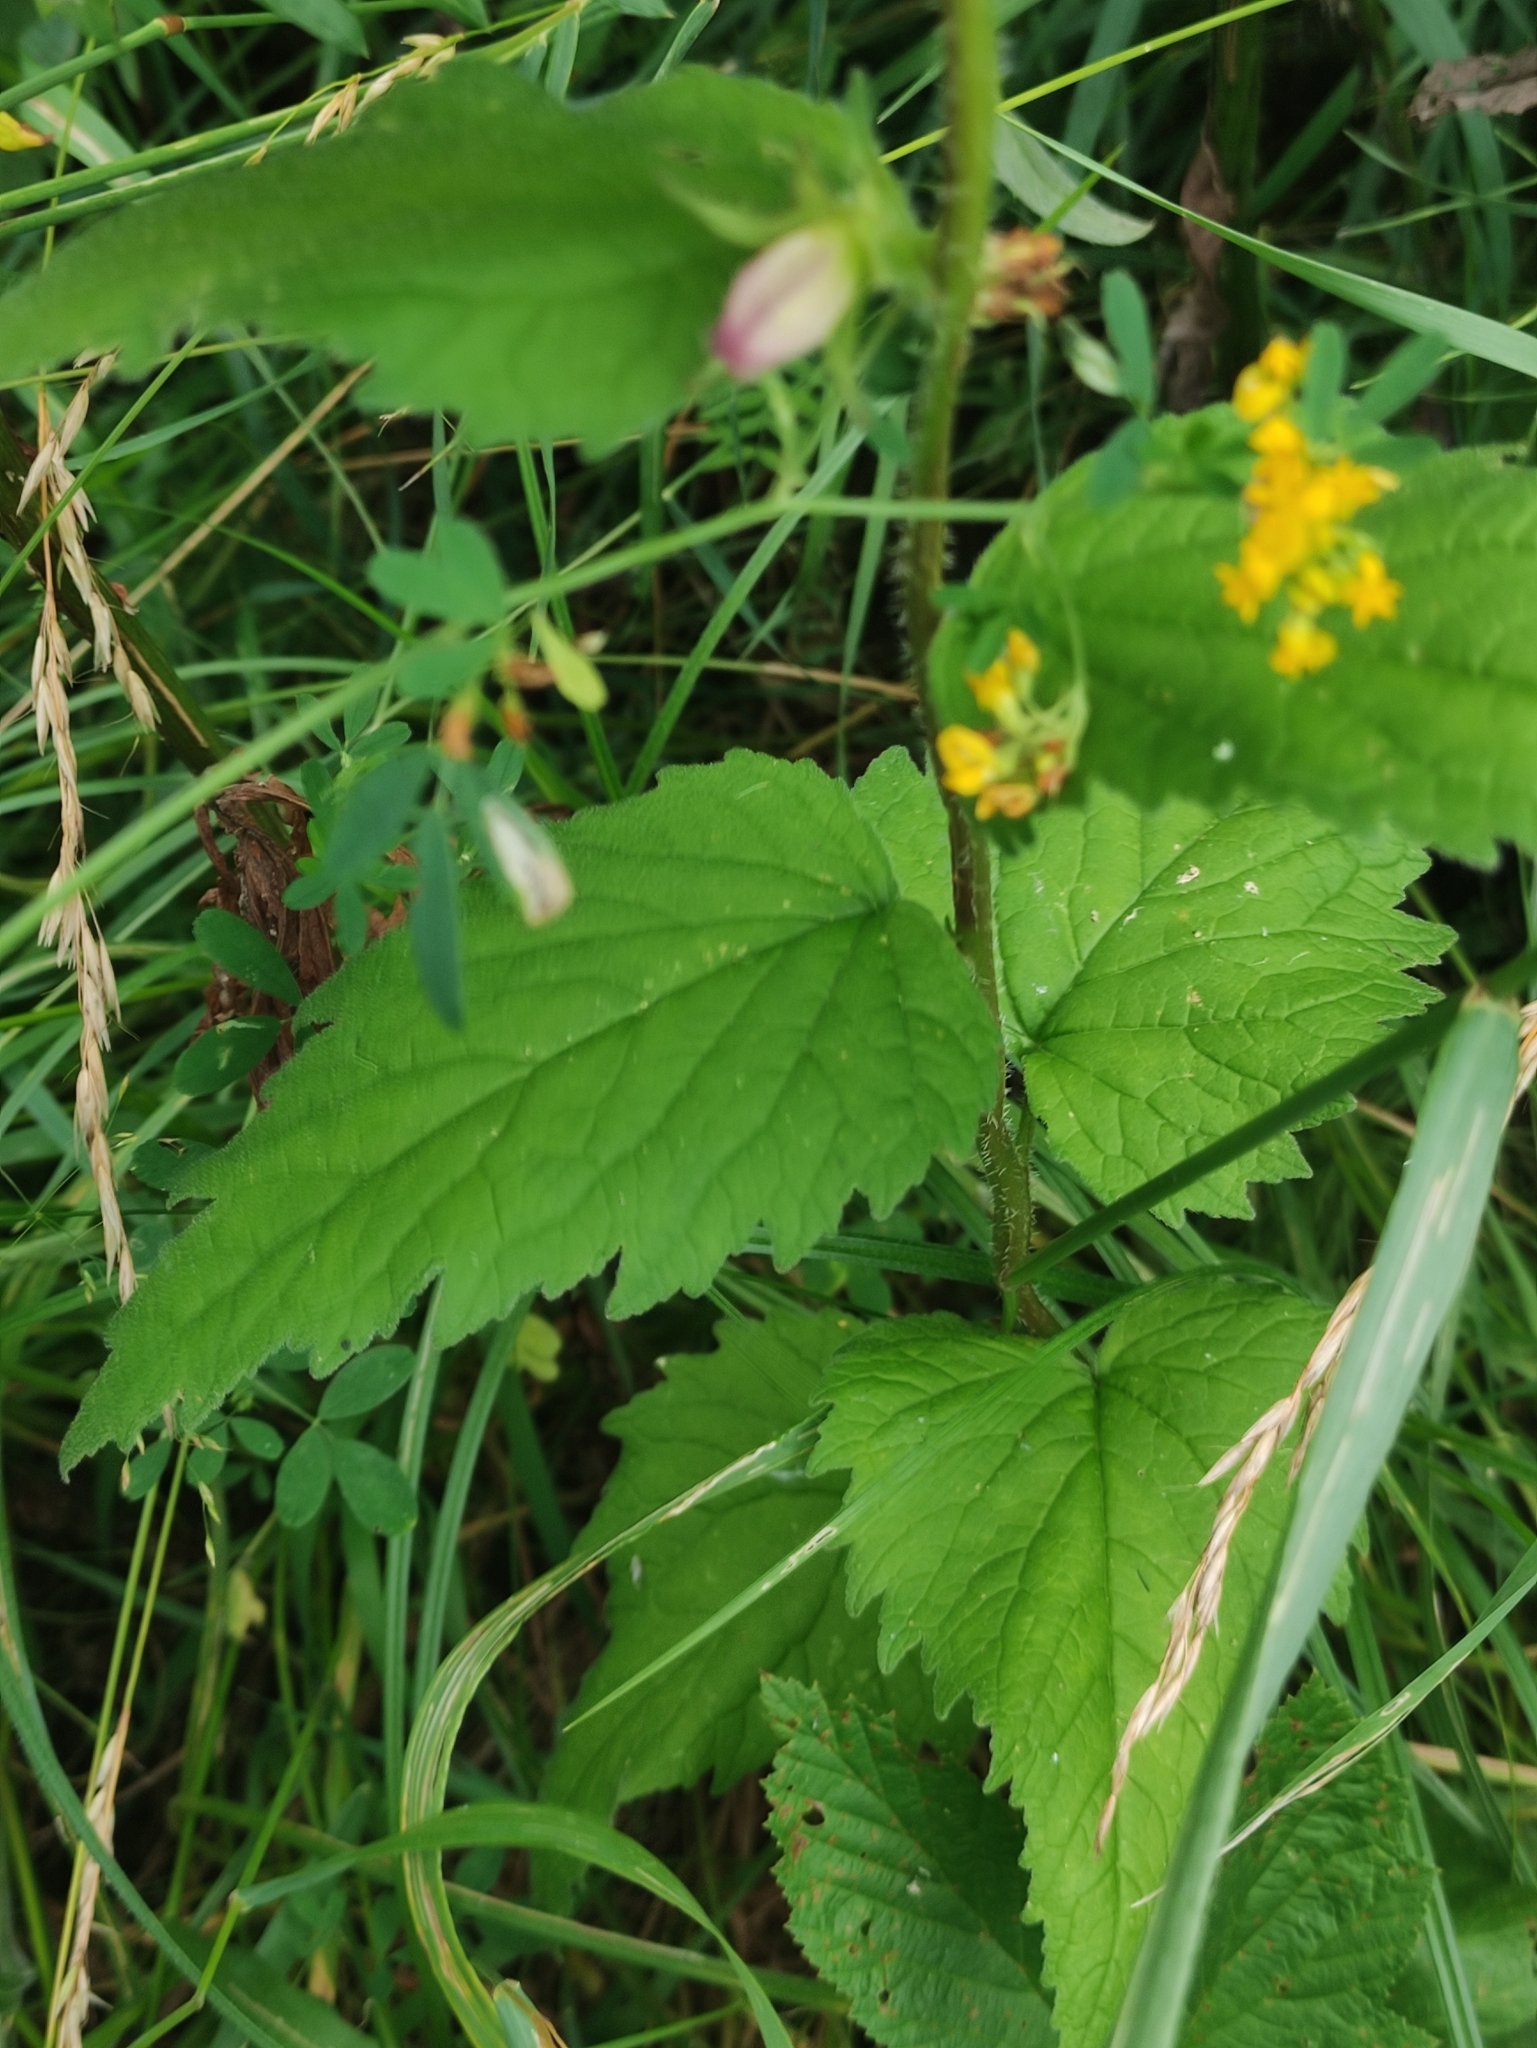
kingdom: Plantae
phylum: Tracheophyta
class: Magnoliopsida
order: Asterales
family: Campanulaceae
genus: Campanula
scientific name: Campanula trachelium
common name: Nettle-leaved bellflower
